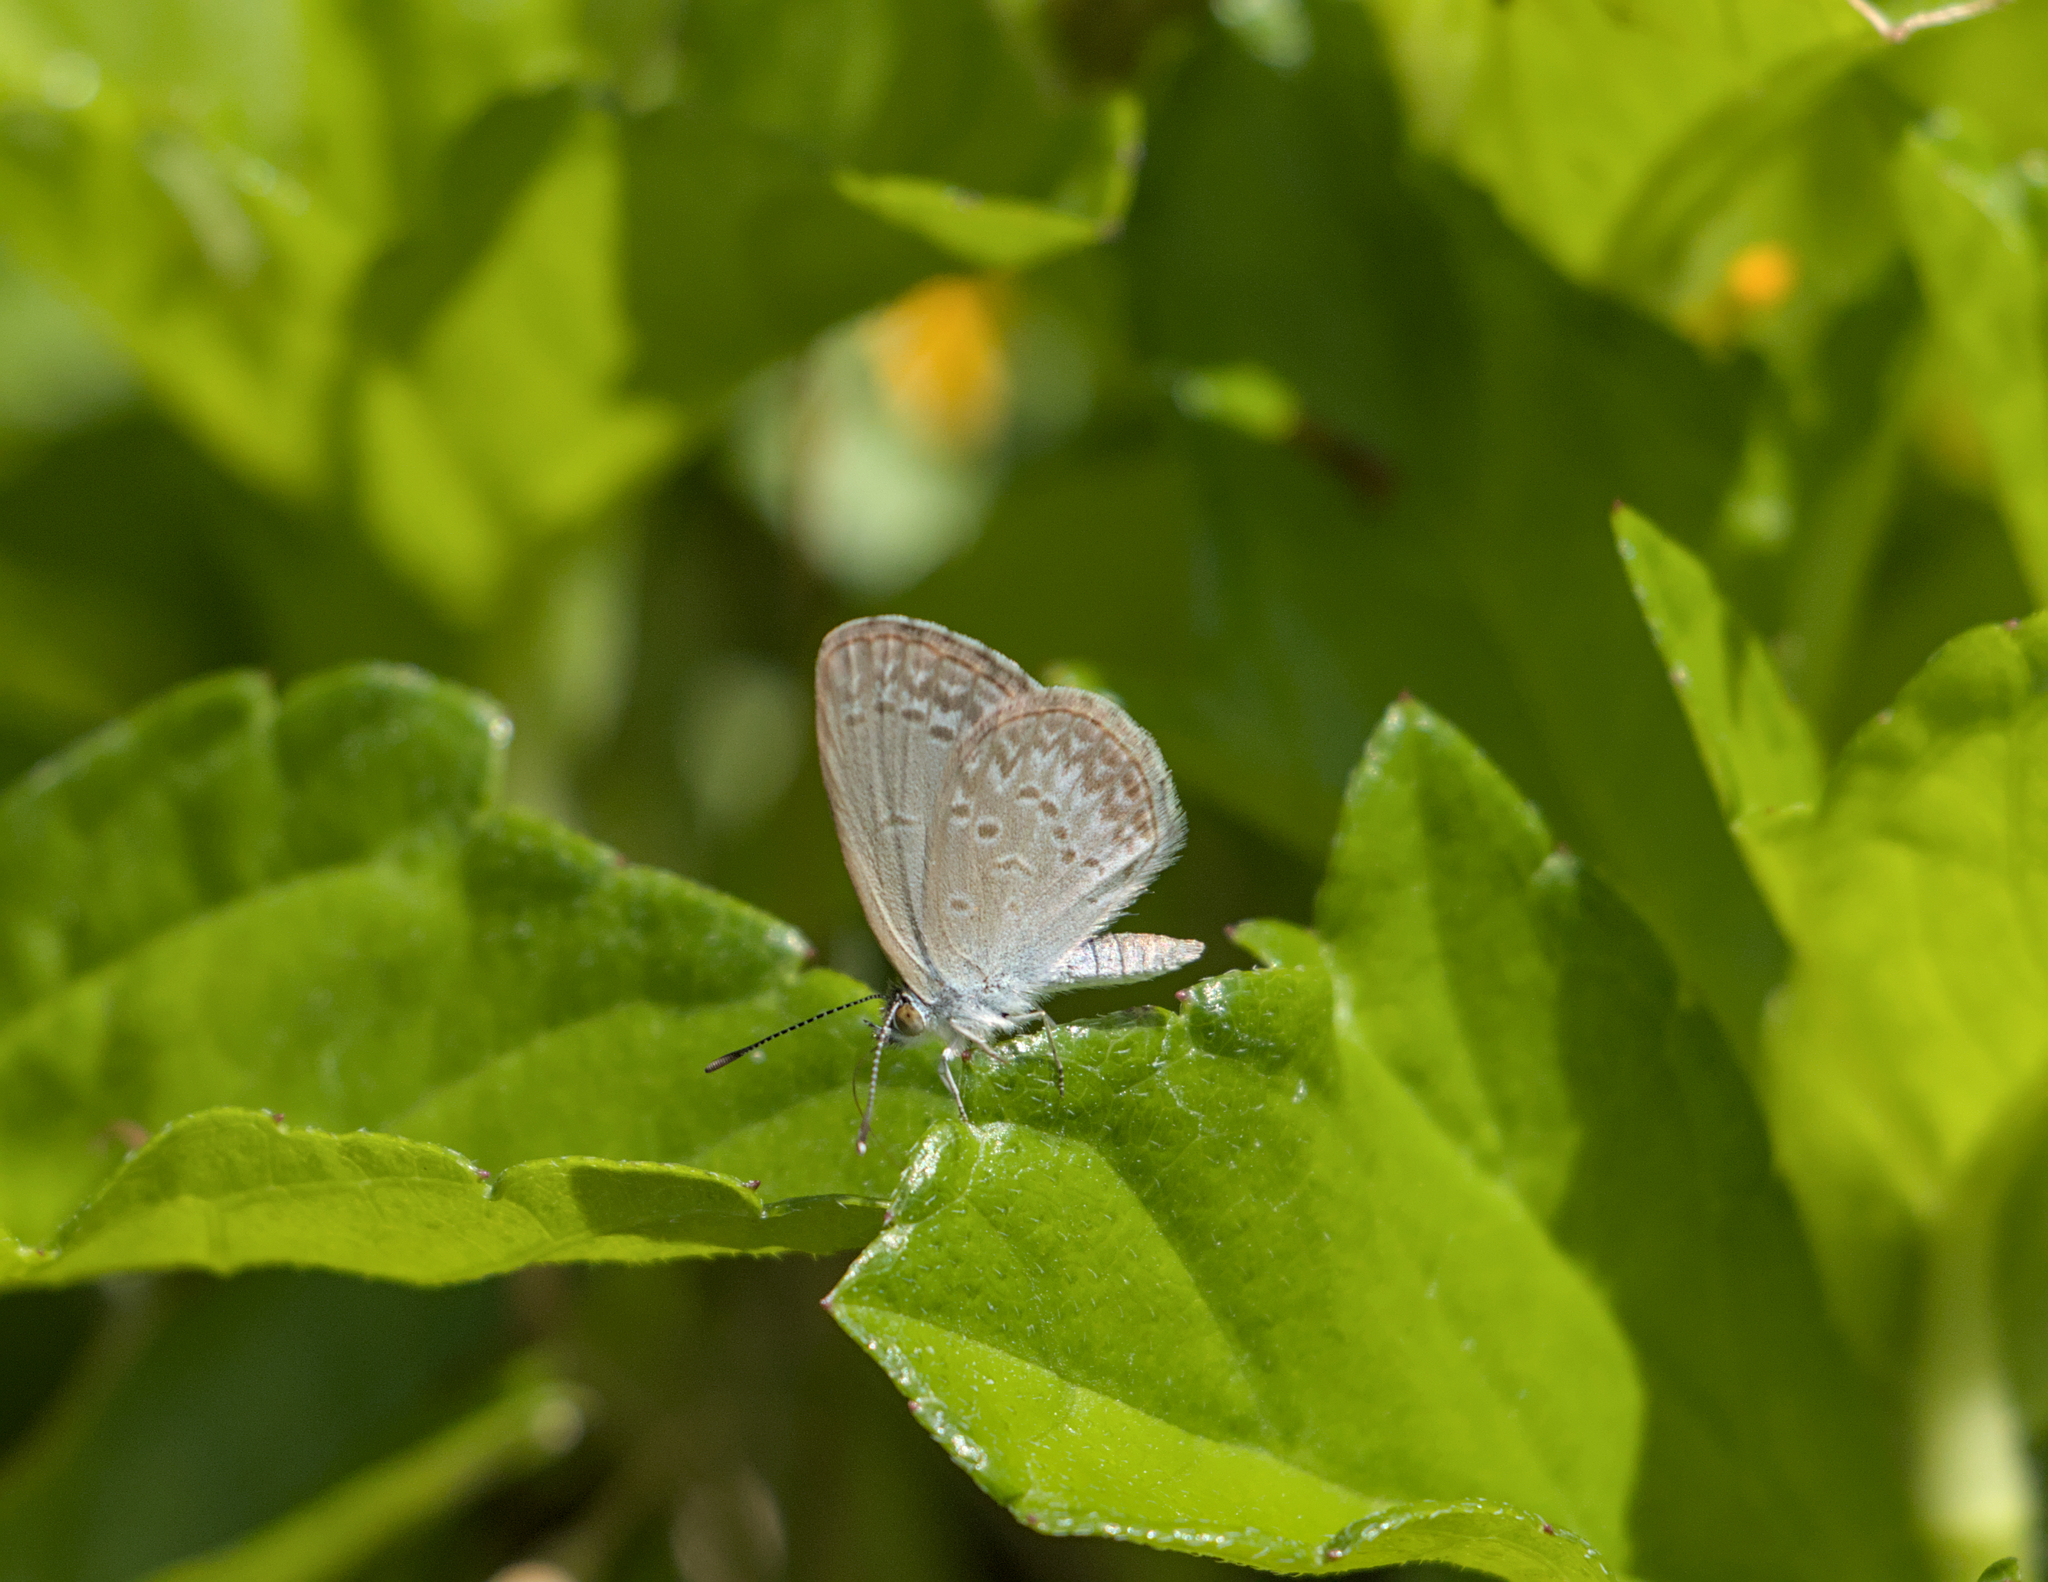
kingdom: Animalia
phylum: Arthropoda
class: Insecta
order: Lepidoptera
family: Lycaenidae
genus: Zizina
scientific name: Zizina labradus
